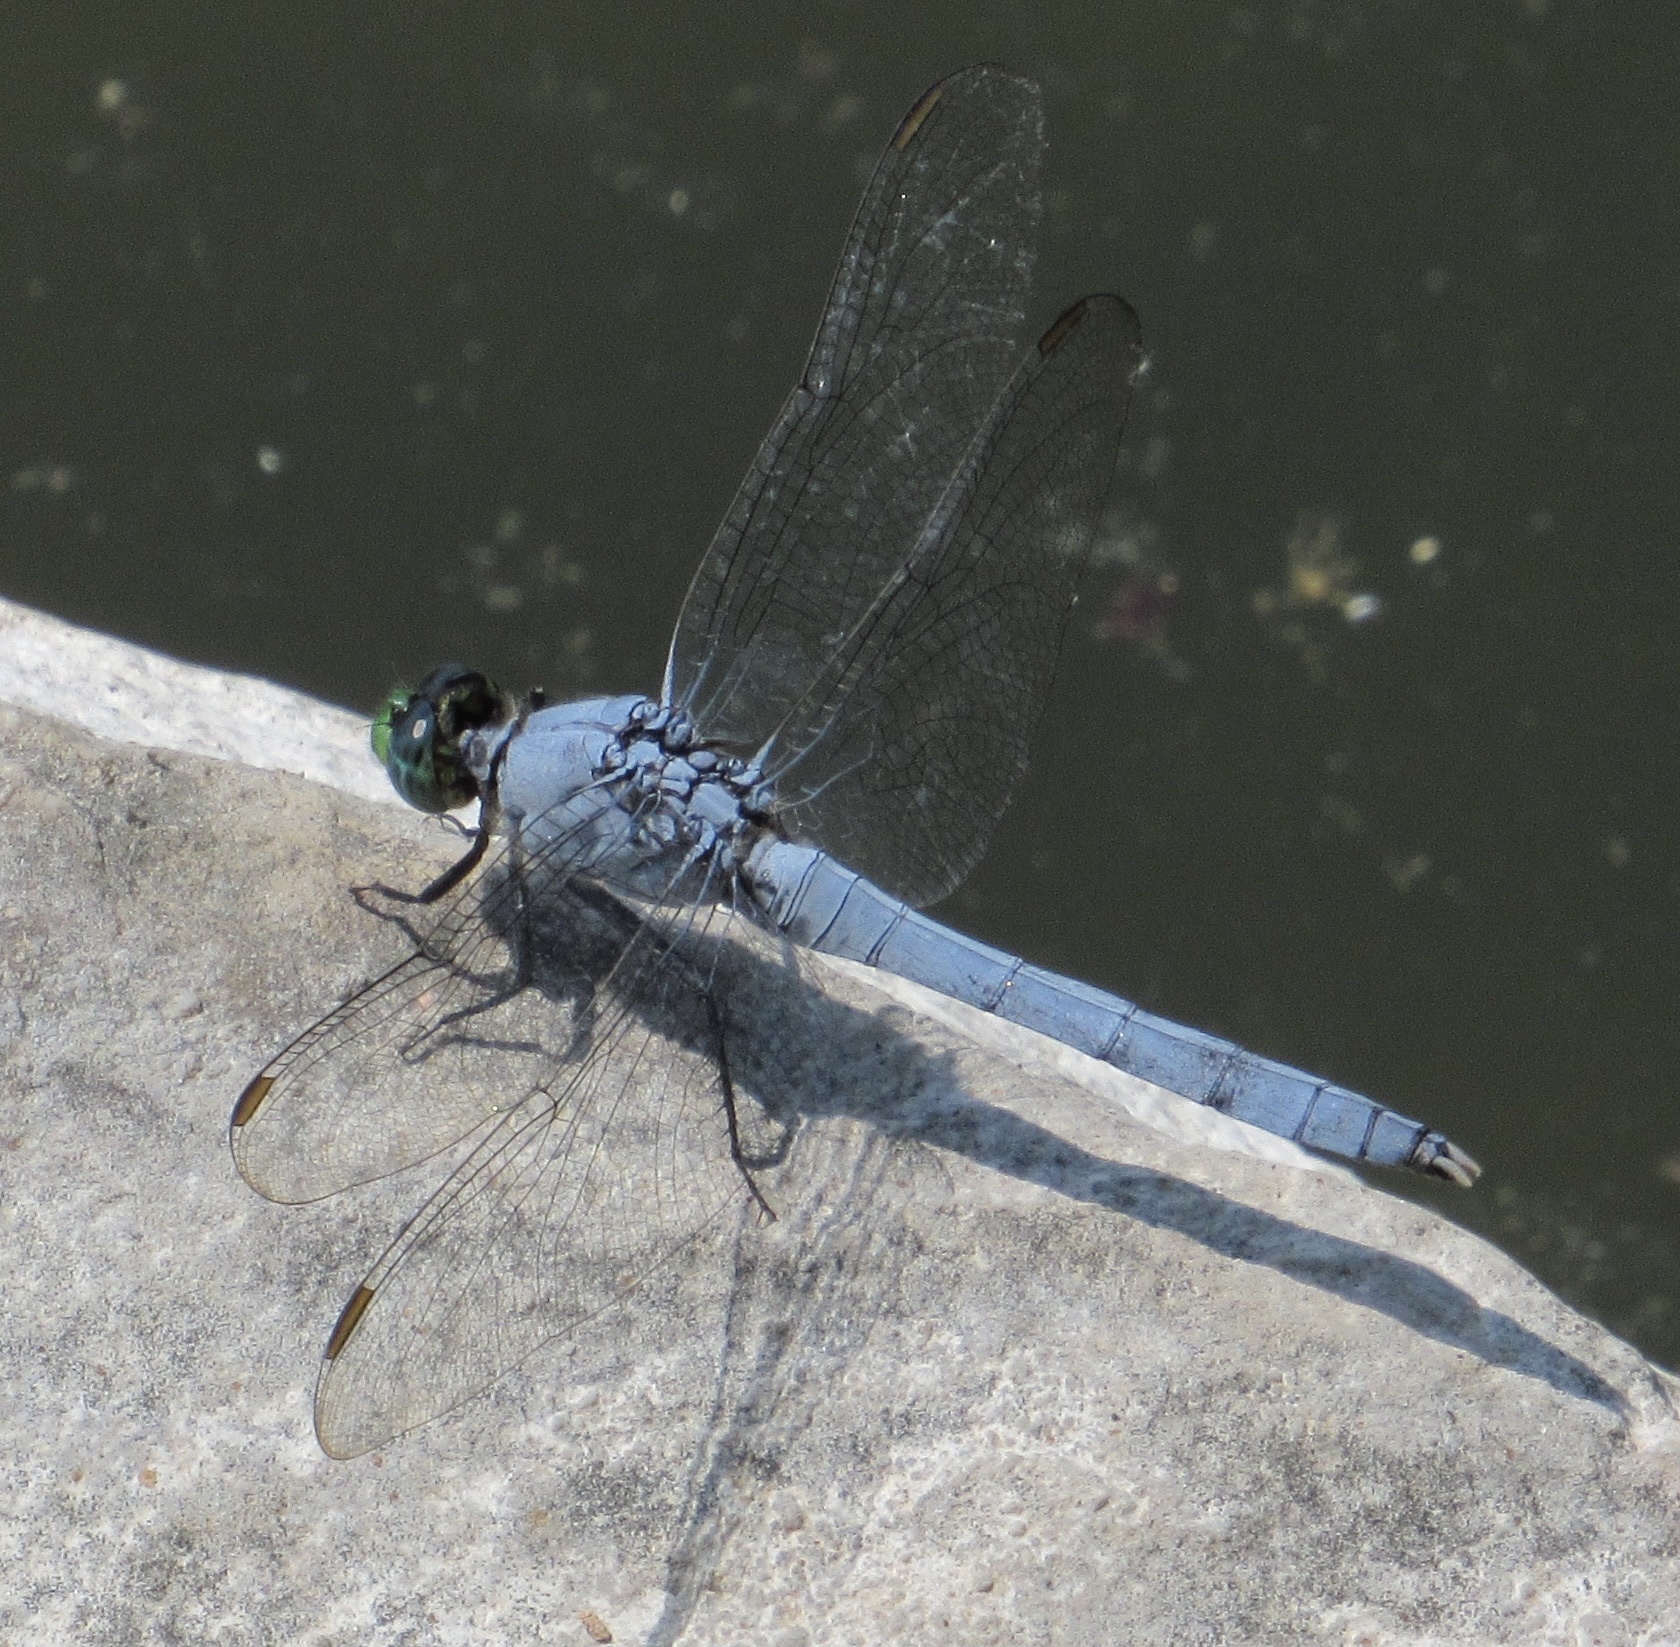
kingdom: Animalia
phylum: Arthropoda
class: Insecta
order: Odonata
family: Libellulidae
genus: Erythemis
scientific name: Erythemis simplicicollis
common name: Eastern pondhawk
